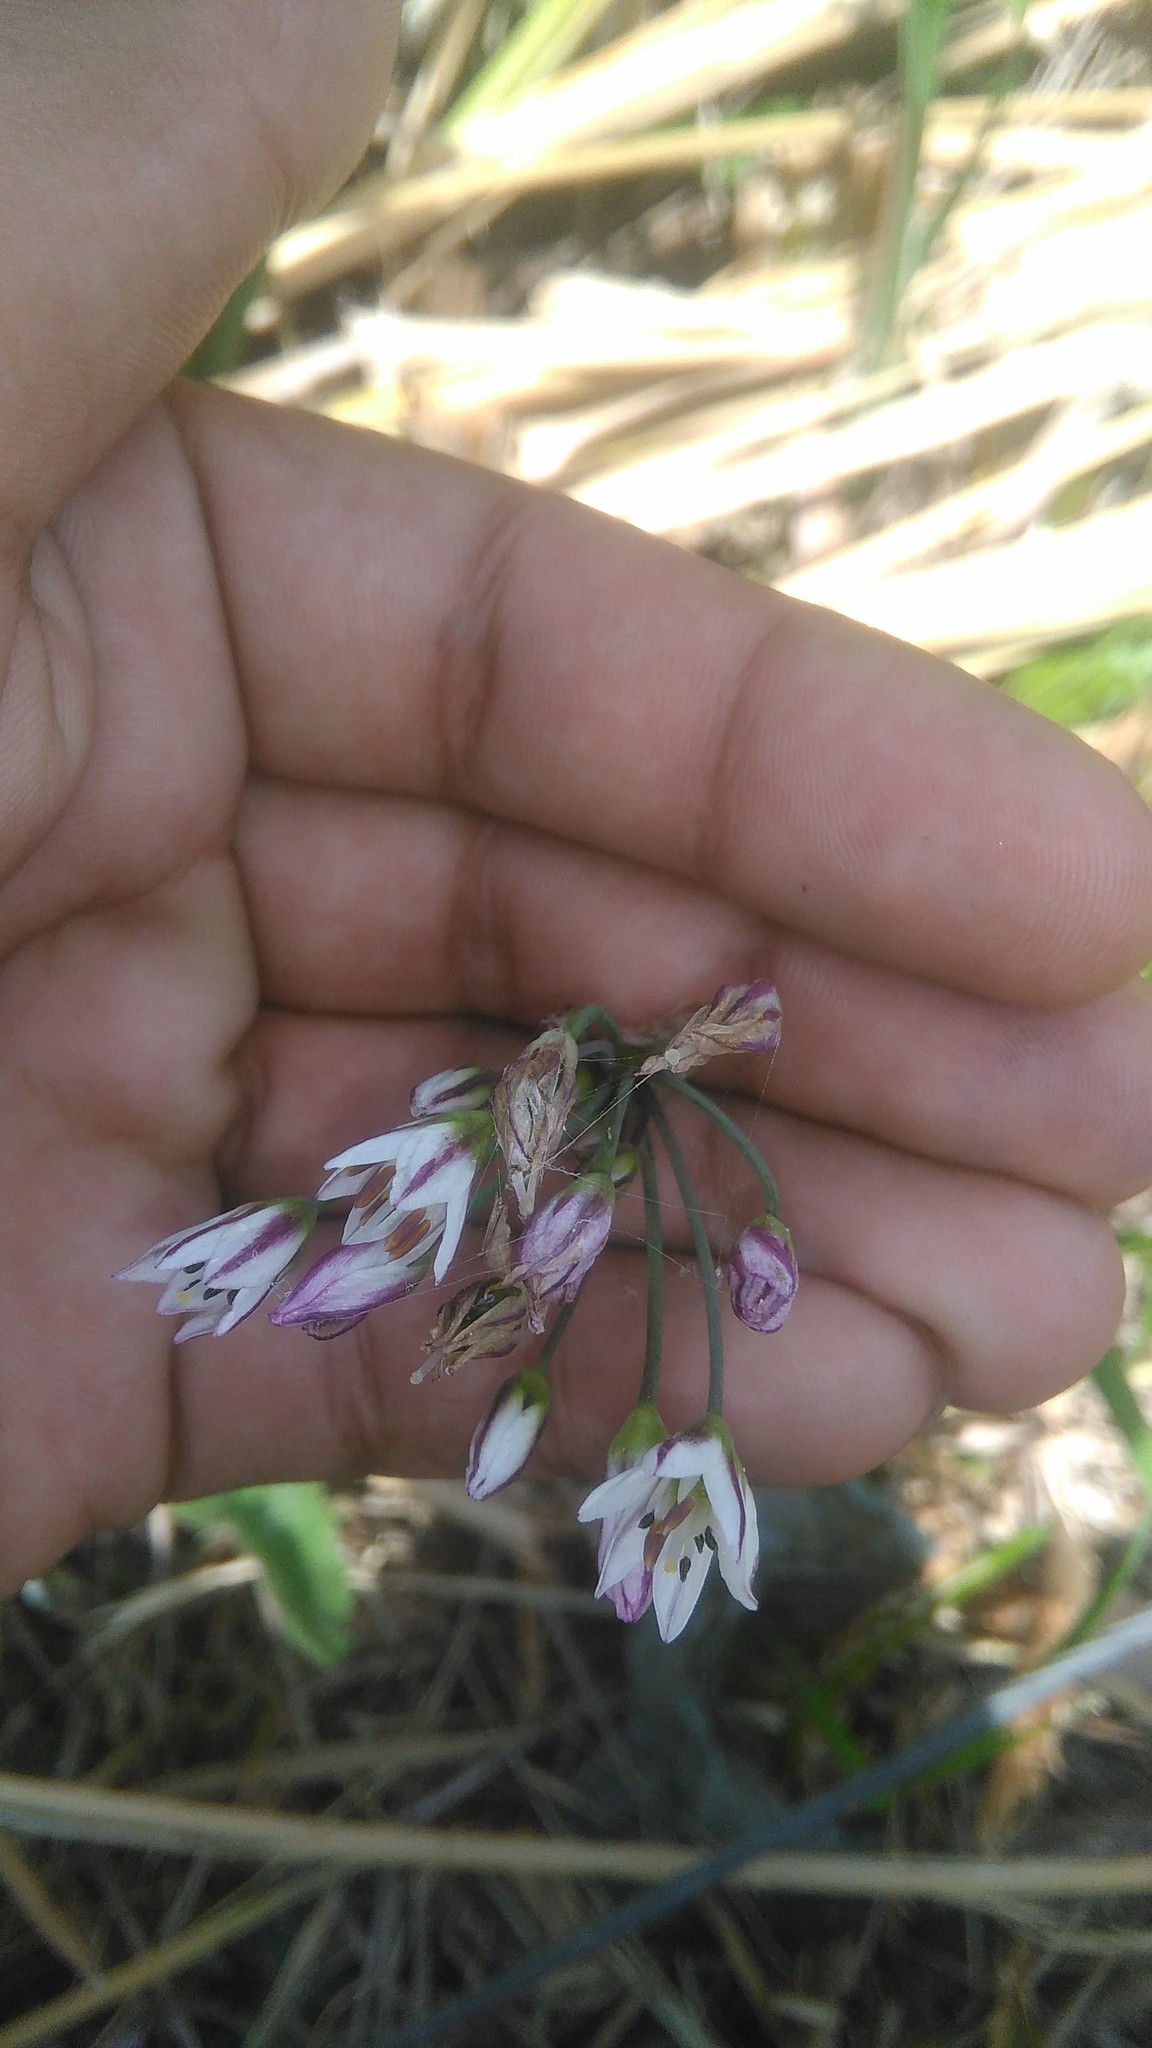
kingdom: Plantae
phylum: Tracheophyta
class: Liliopsida
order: Asparagales
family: Amaryllidaceae
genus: Nothoscordum
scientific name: Nothoscordum gracile
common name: Slender false garlic
